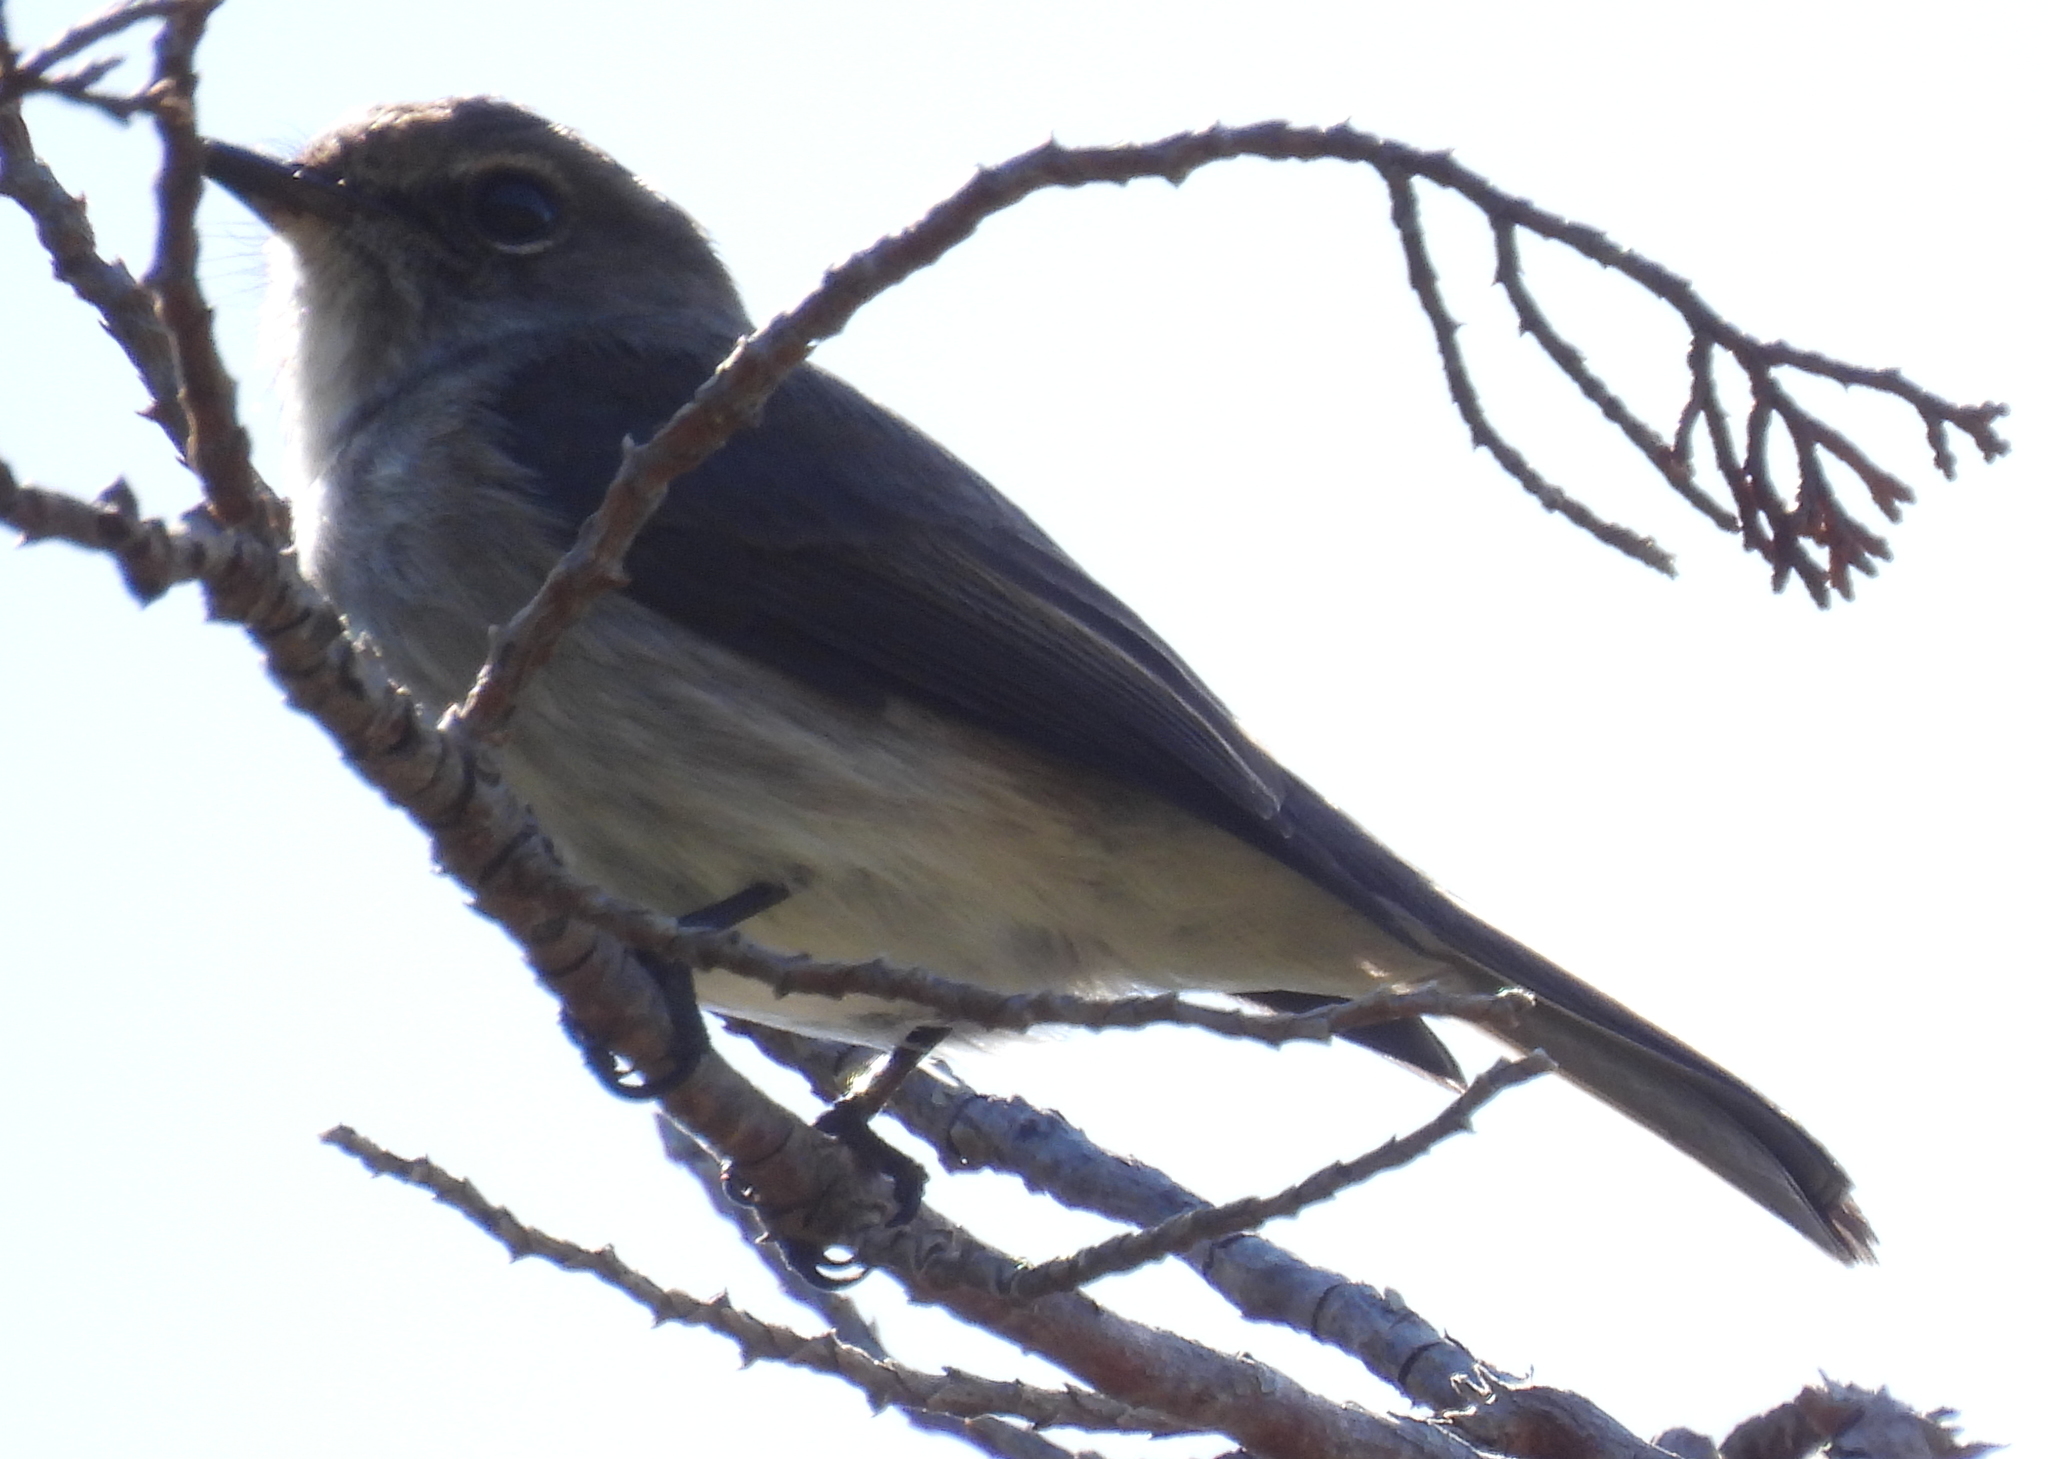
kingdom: Animalia
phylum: Chordata
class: Aves
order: Passeriformes
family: Muscicapidae
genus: Muscicapa
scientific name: Muscicapa adusta
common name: African dusky flycatcher
